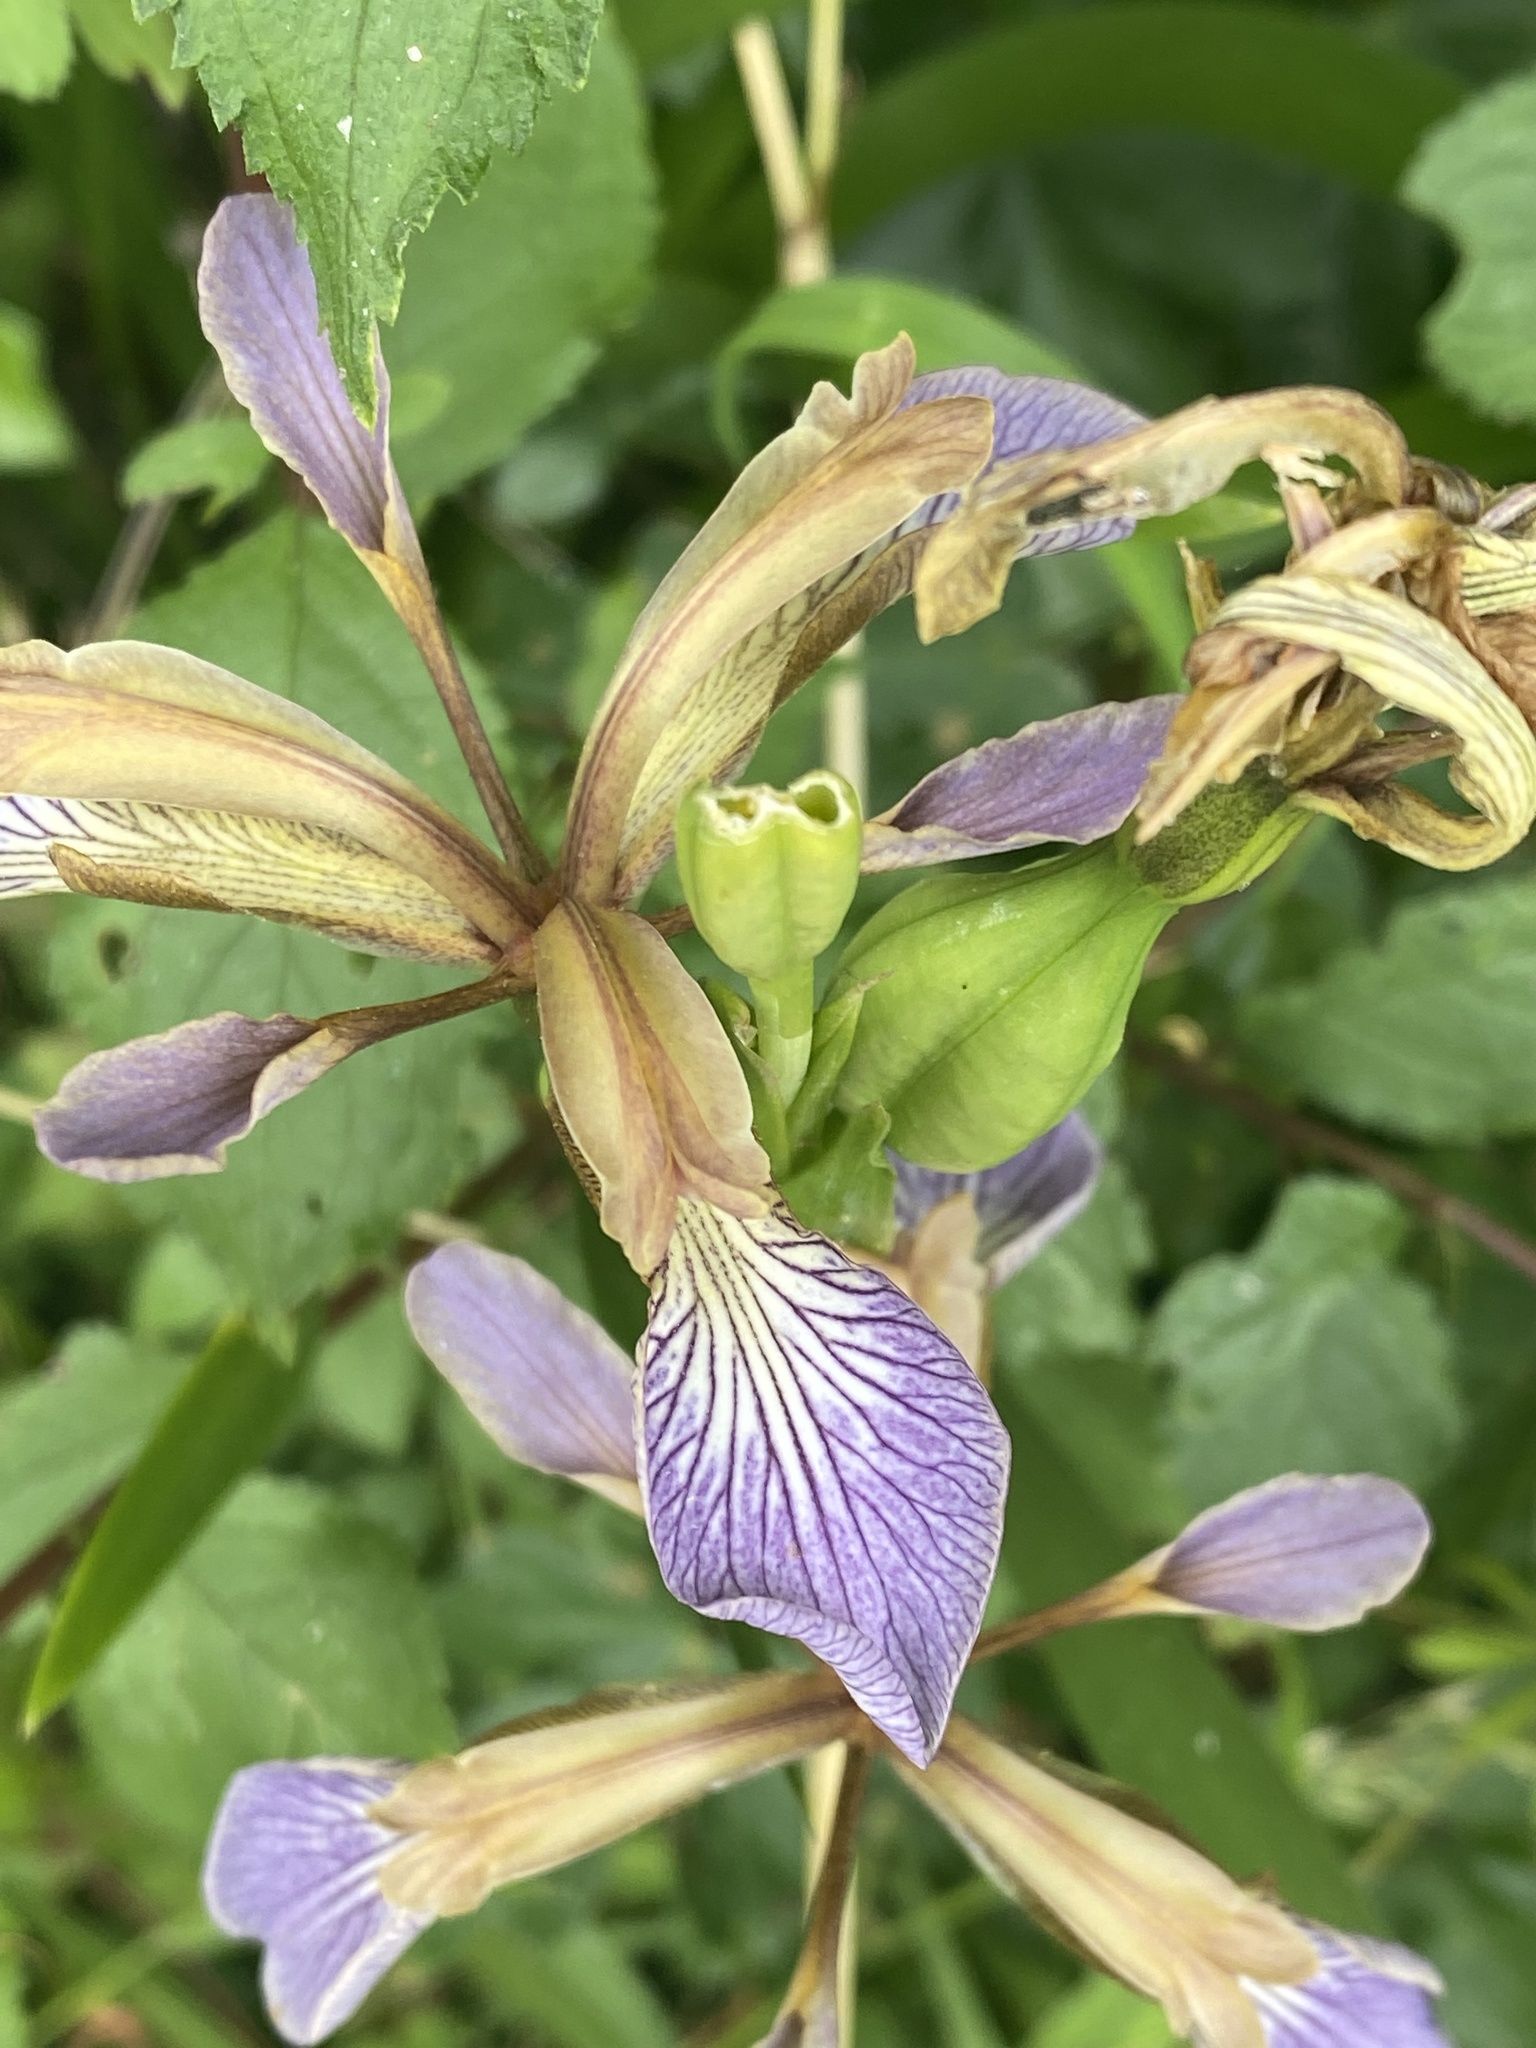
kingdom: Plantae
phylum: Tracheophyta
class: Liliopsida
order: Asparagales
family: Iridaceae
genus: Iris
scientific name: Iris foetidissima
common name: Stinking iris
